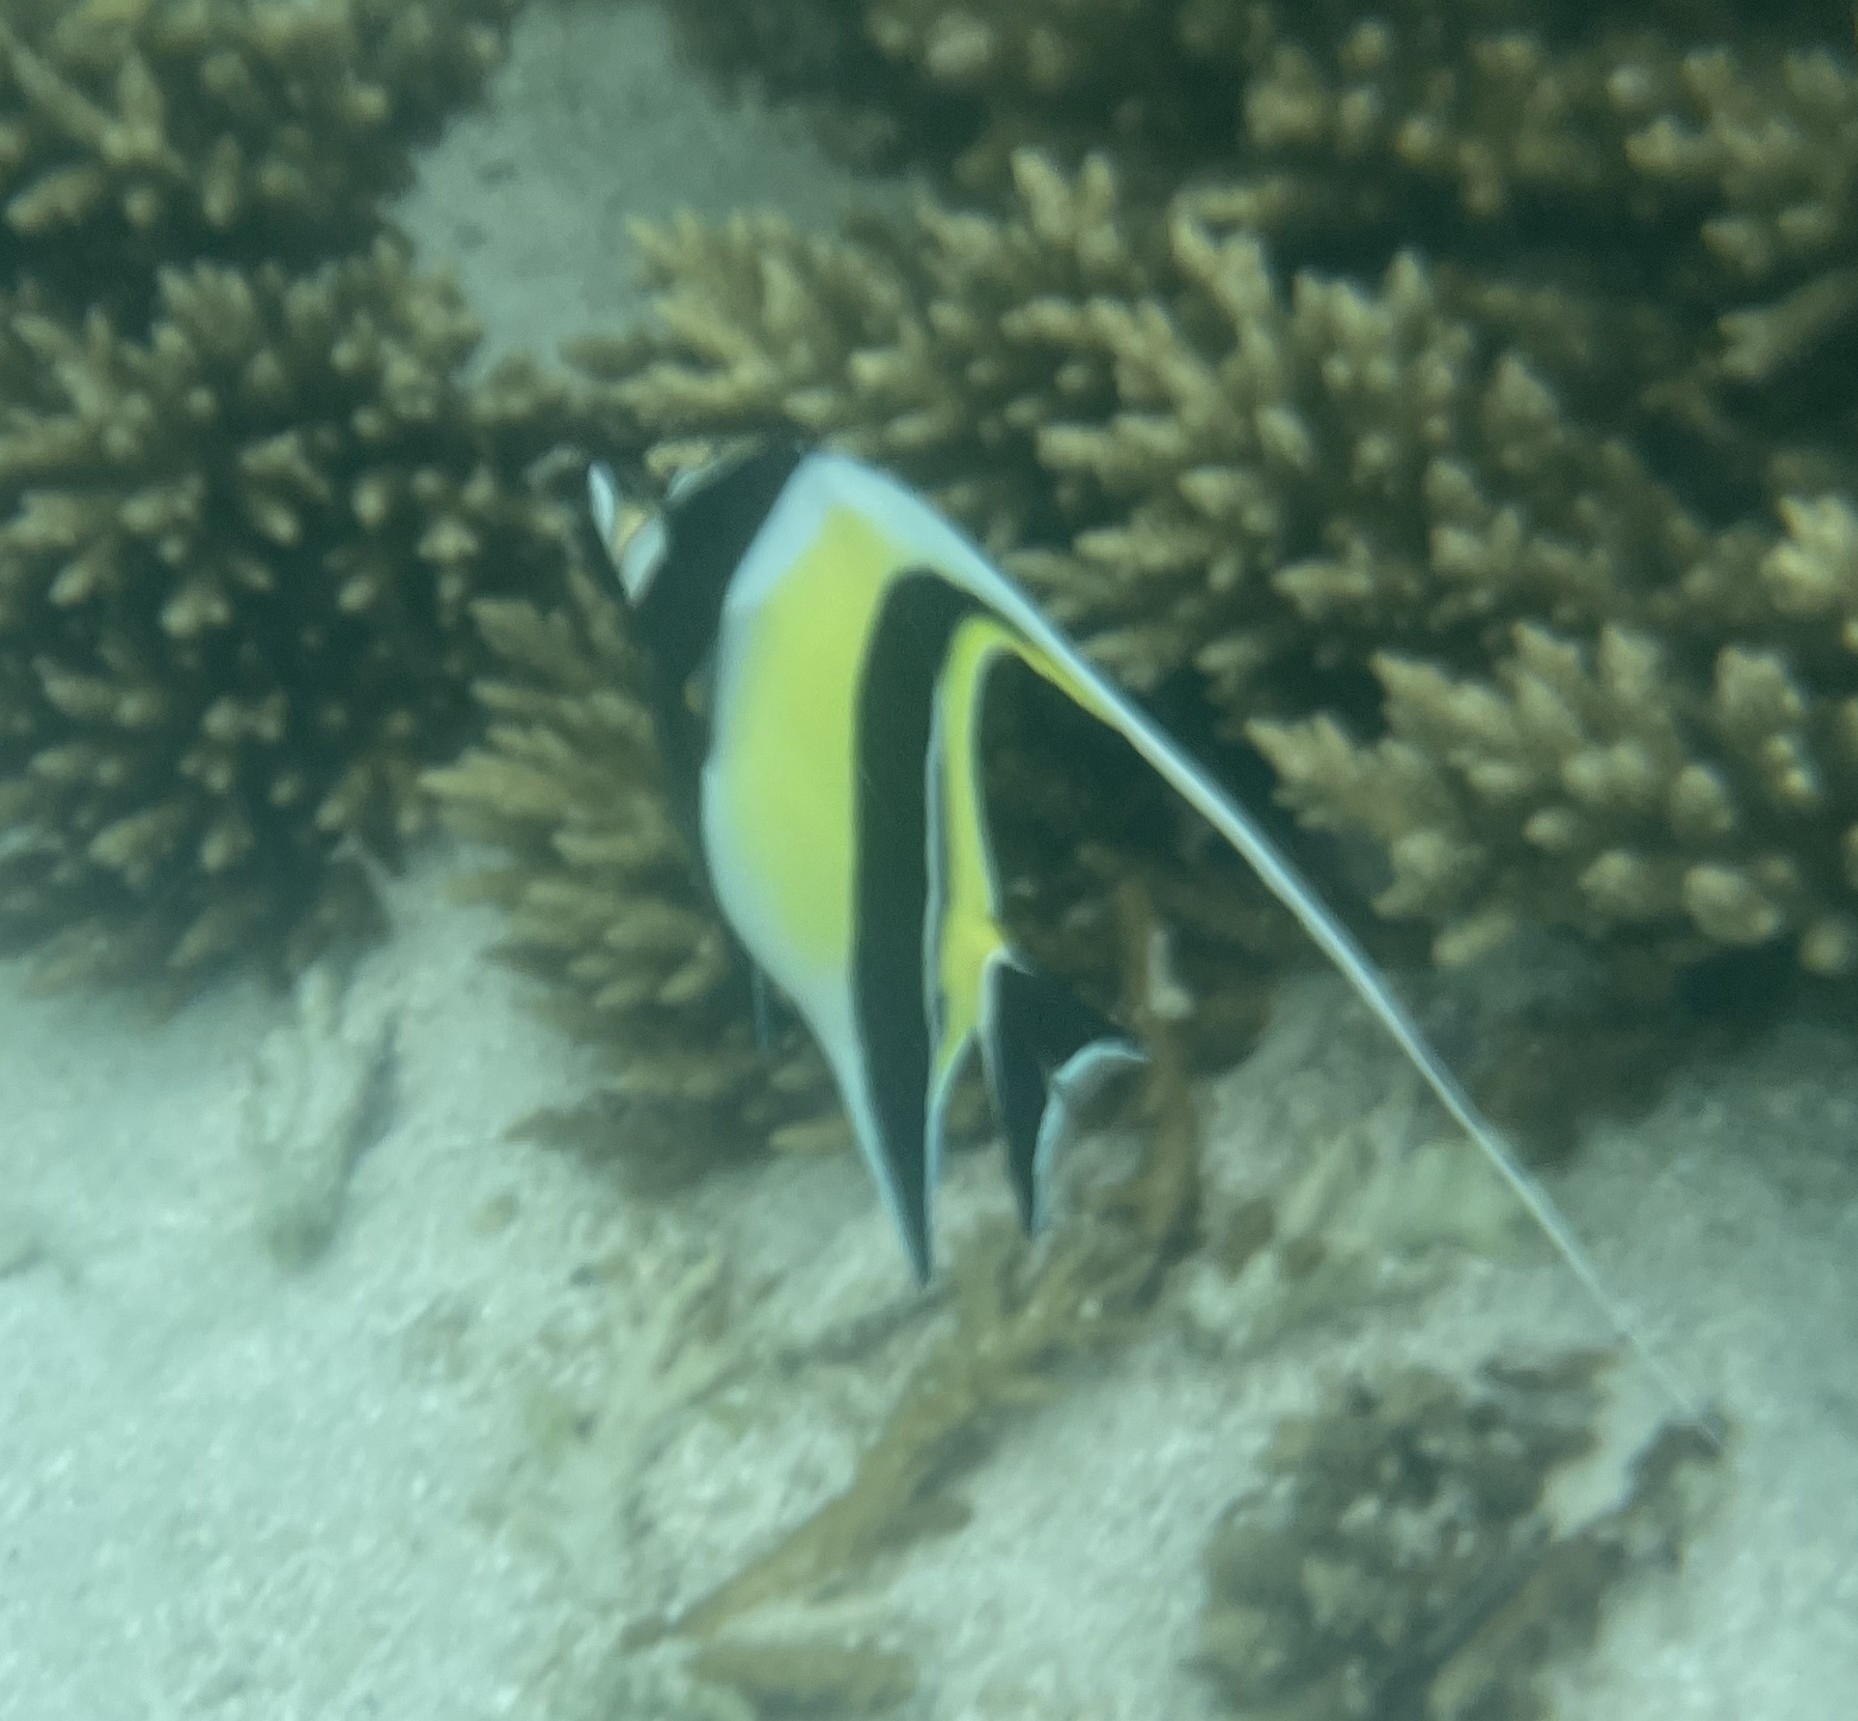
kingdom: Animalia
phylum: Chordata
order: Perciformes
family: Zanclidae
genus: Zanclus
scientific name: Zanclus cornutus
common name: Moorish idol
